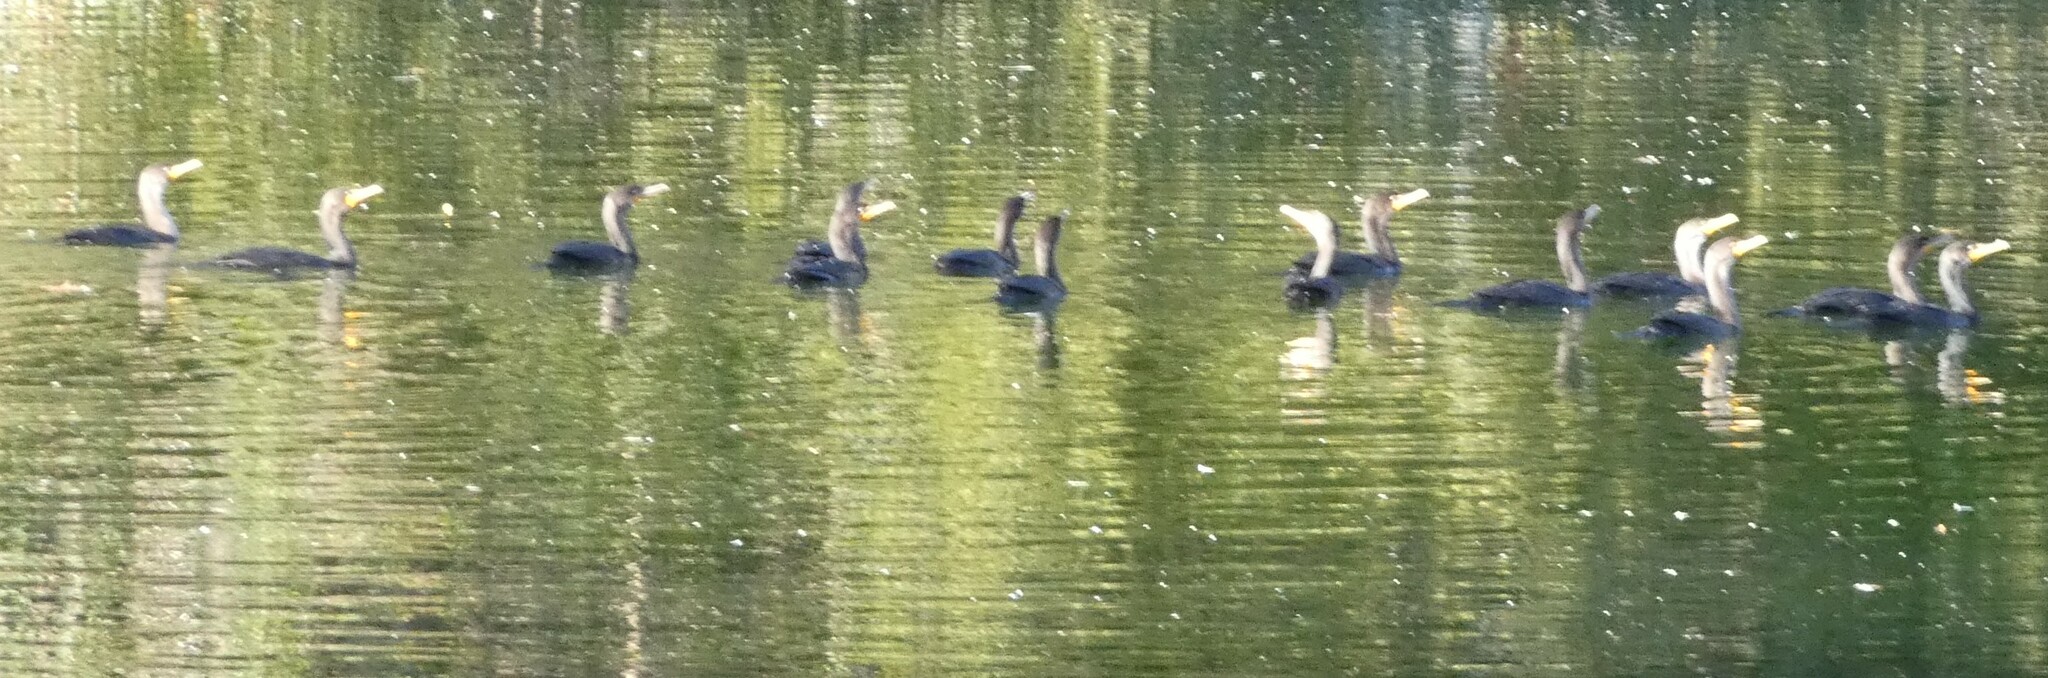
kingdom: Animalia
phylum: Chordata
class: Aves
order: Suliformes
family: Phalacrocoracidae
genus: Phalacrocorax
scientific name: Phalacrocorax auritus
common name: Double-crested cormorant
